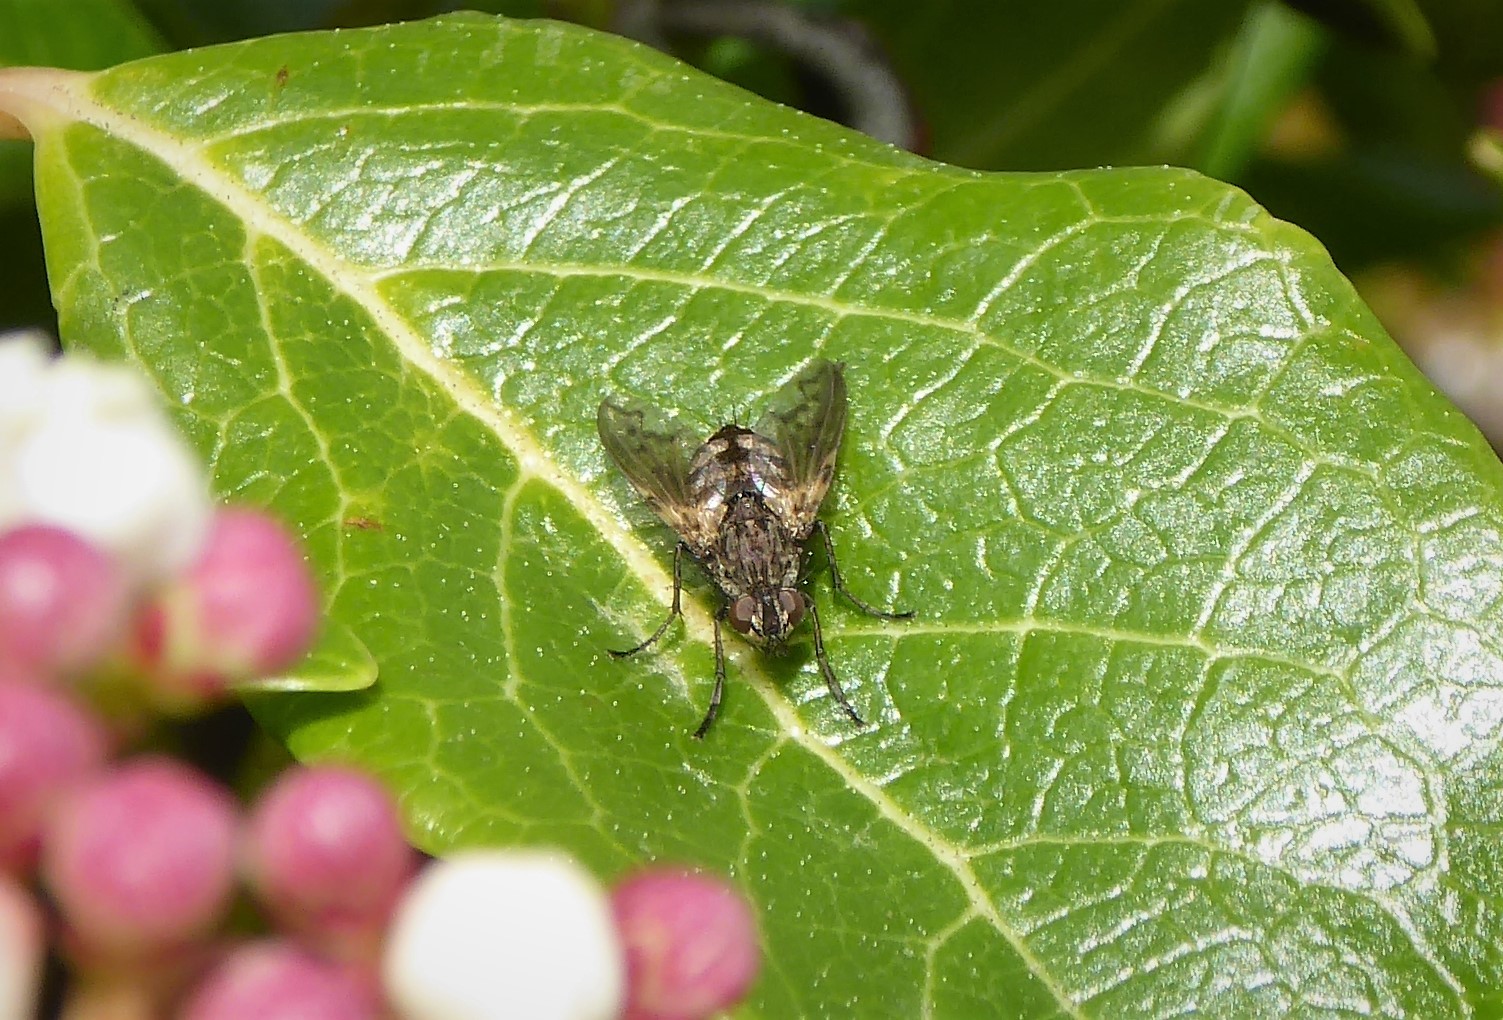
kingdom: Animalia
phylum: Arthropoda
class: Insecta
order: Diptera
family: Tachinidae
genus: Mallochomacquartia
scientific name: Mallochomacquartia vexata
